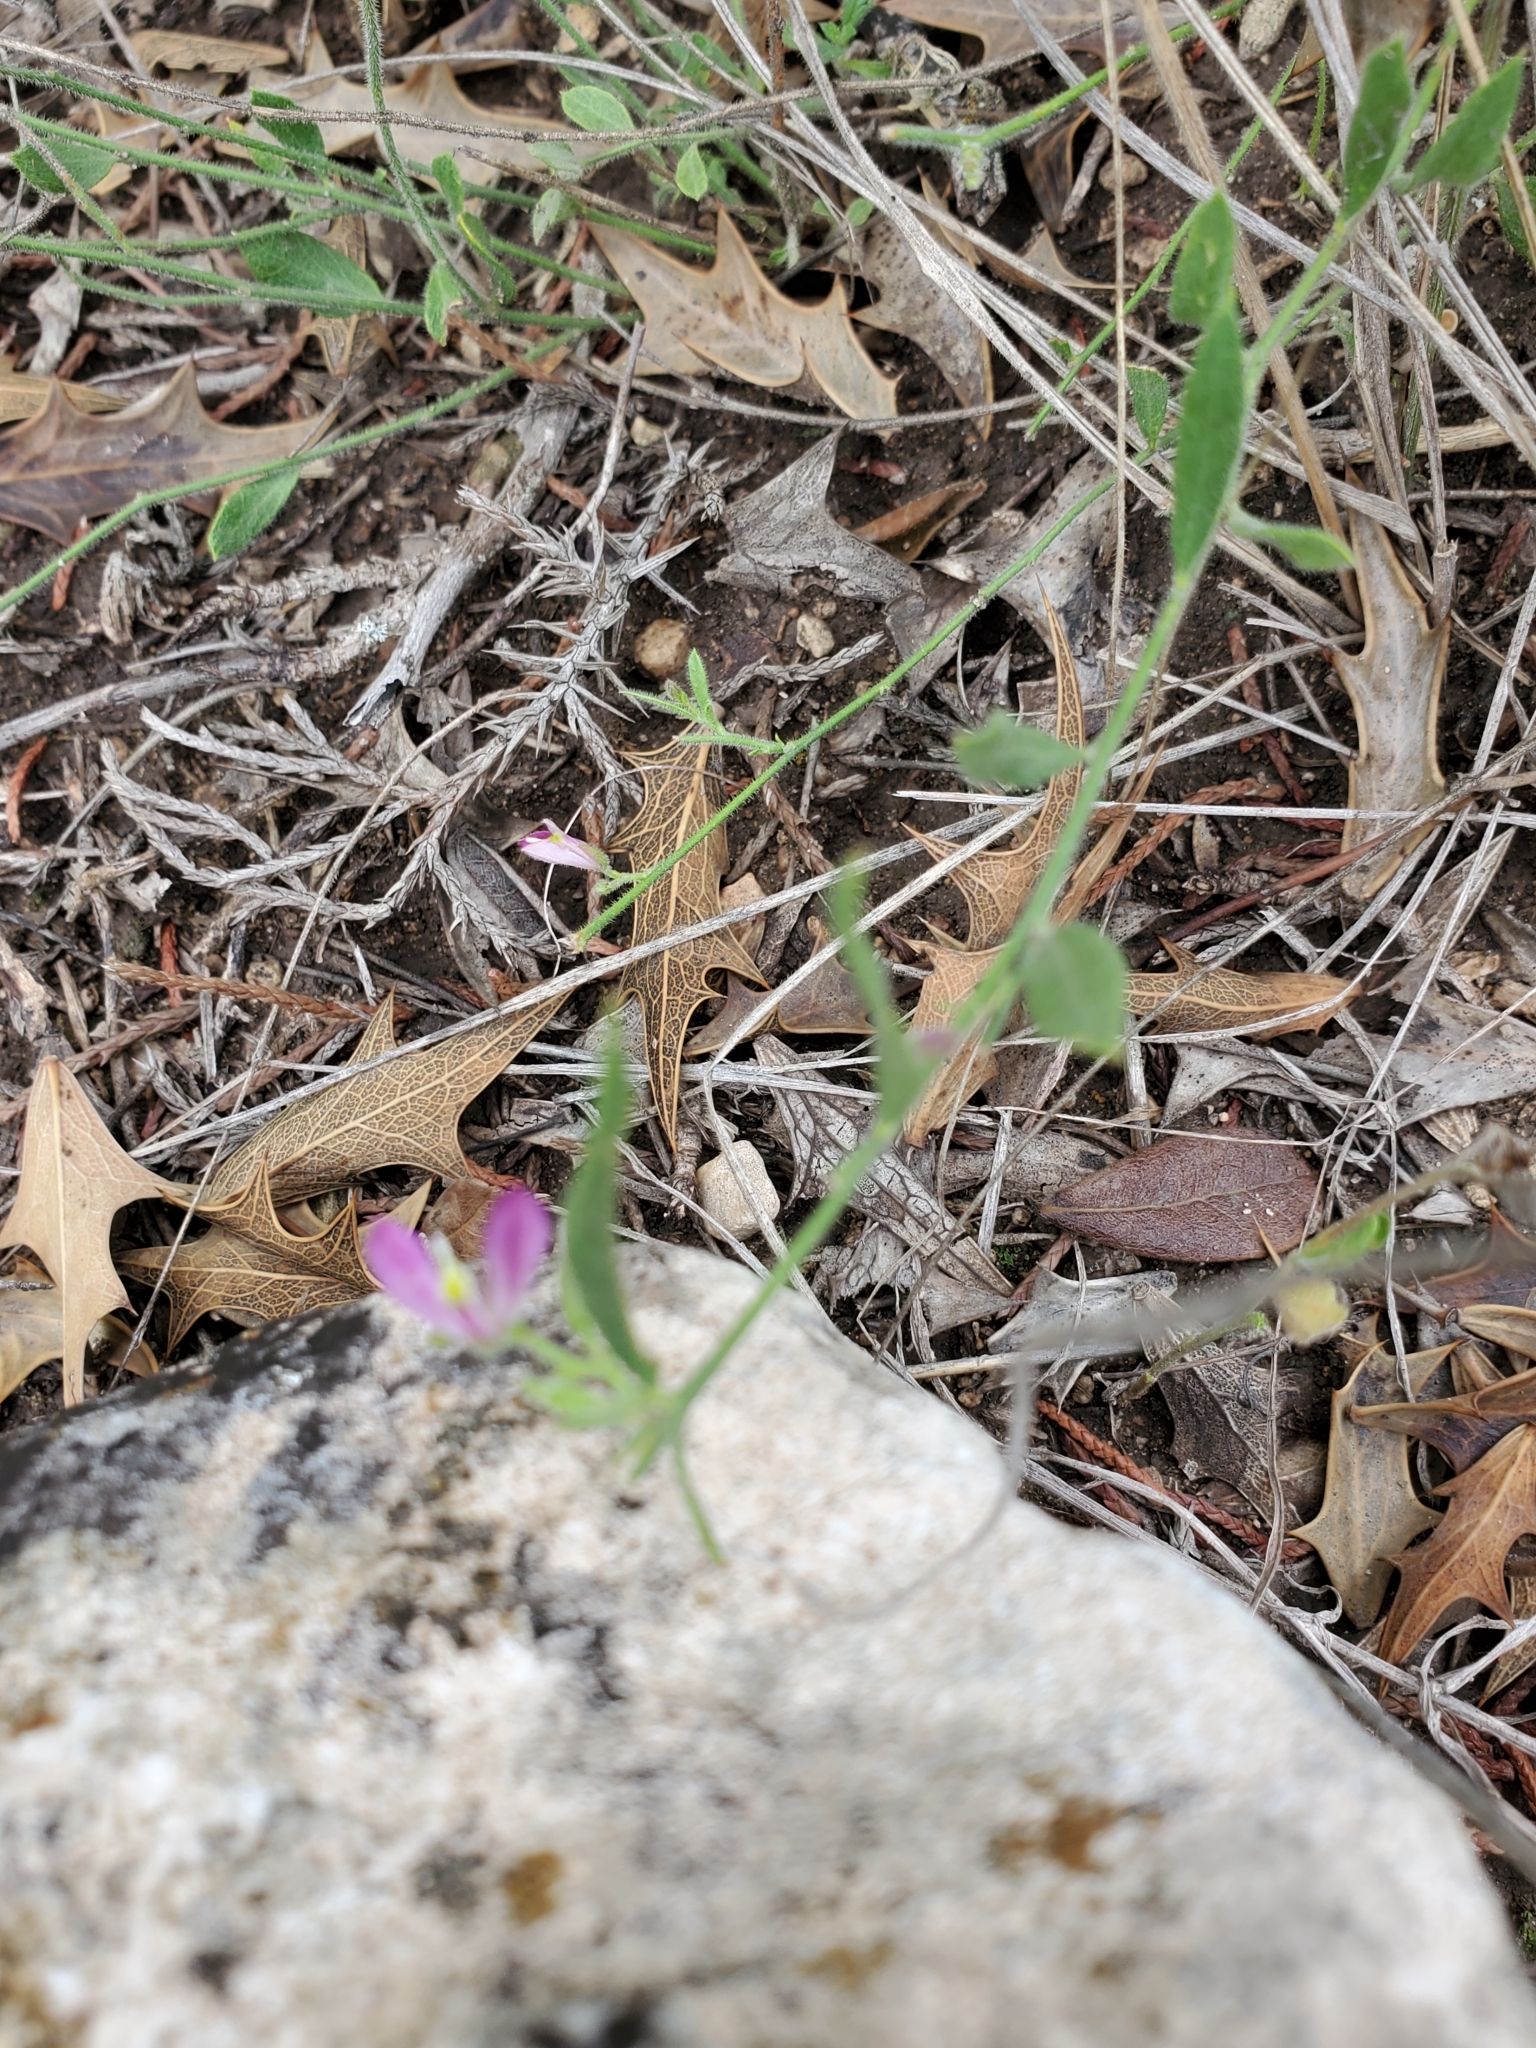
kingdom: Plantae
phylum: Tracheophyta
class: Magnoliopsida
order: Fabales
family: Polygalaceae
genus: Rhinotropis
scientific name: Rhinotropis lindheimeri
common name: Shrubby milkwort
